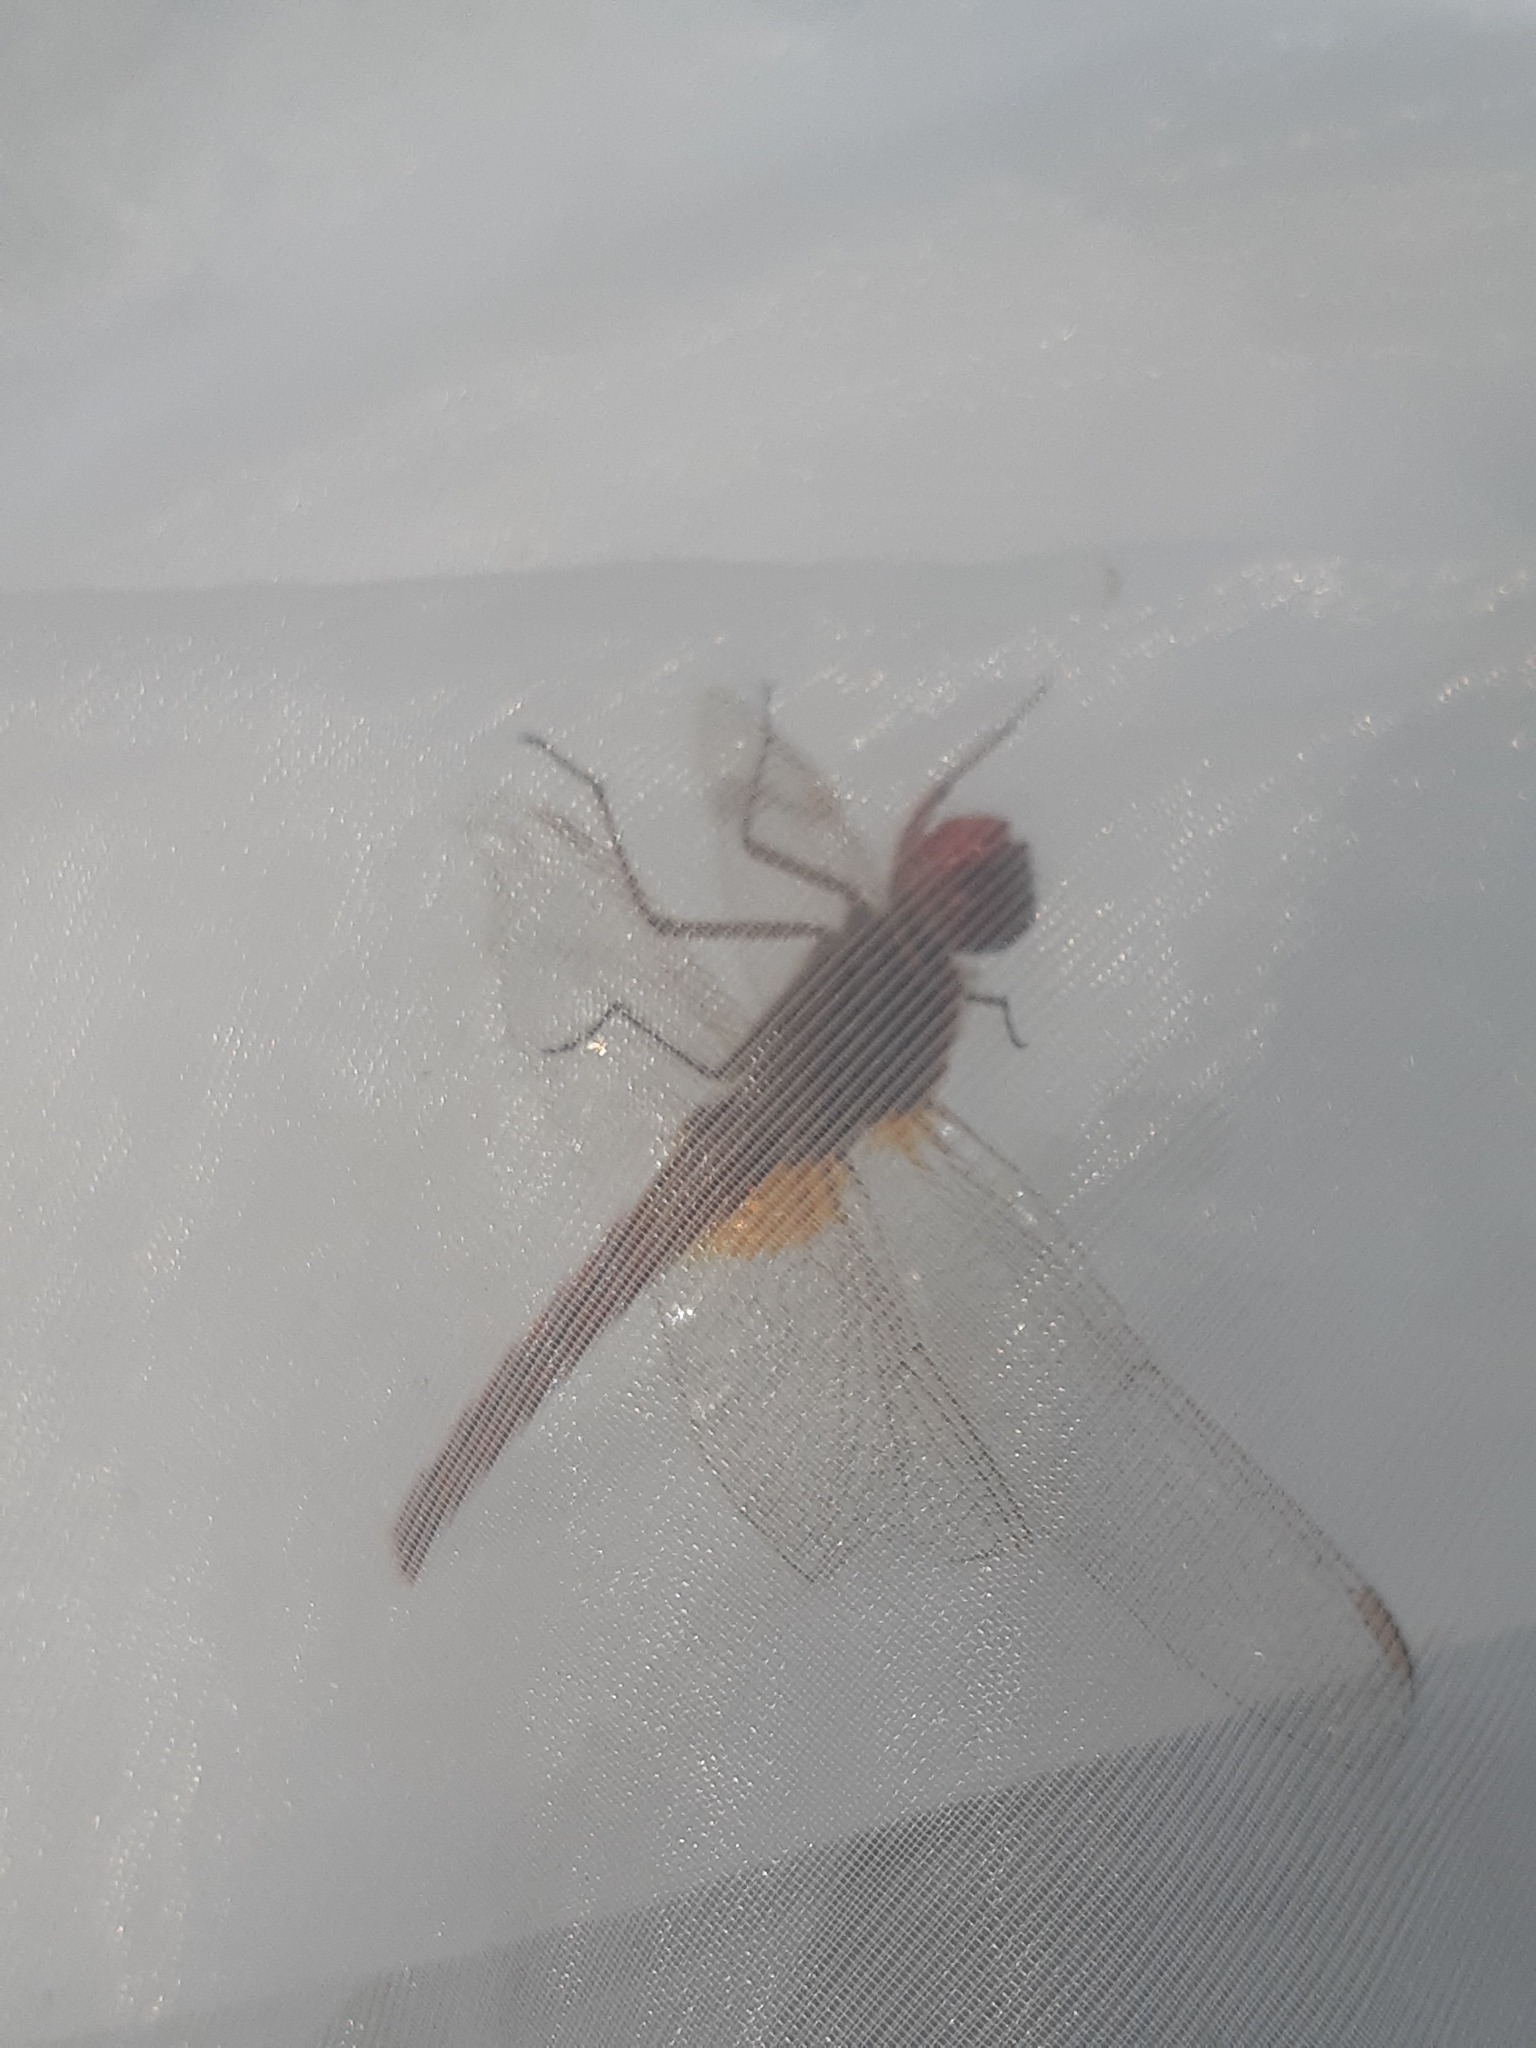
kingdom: Animalia
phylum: Arthropoda
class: Insecta
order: Odonata
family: Libellulidae
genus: Crocothemis
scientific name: Crocothemis erythraea
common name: Scarlet dragonfly
